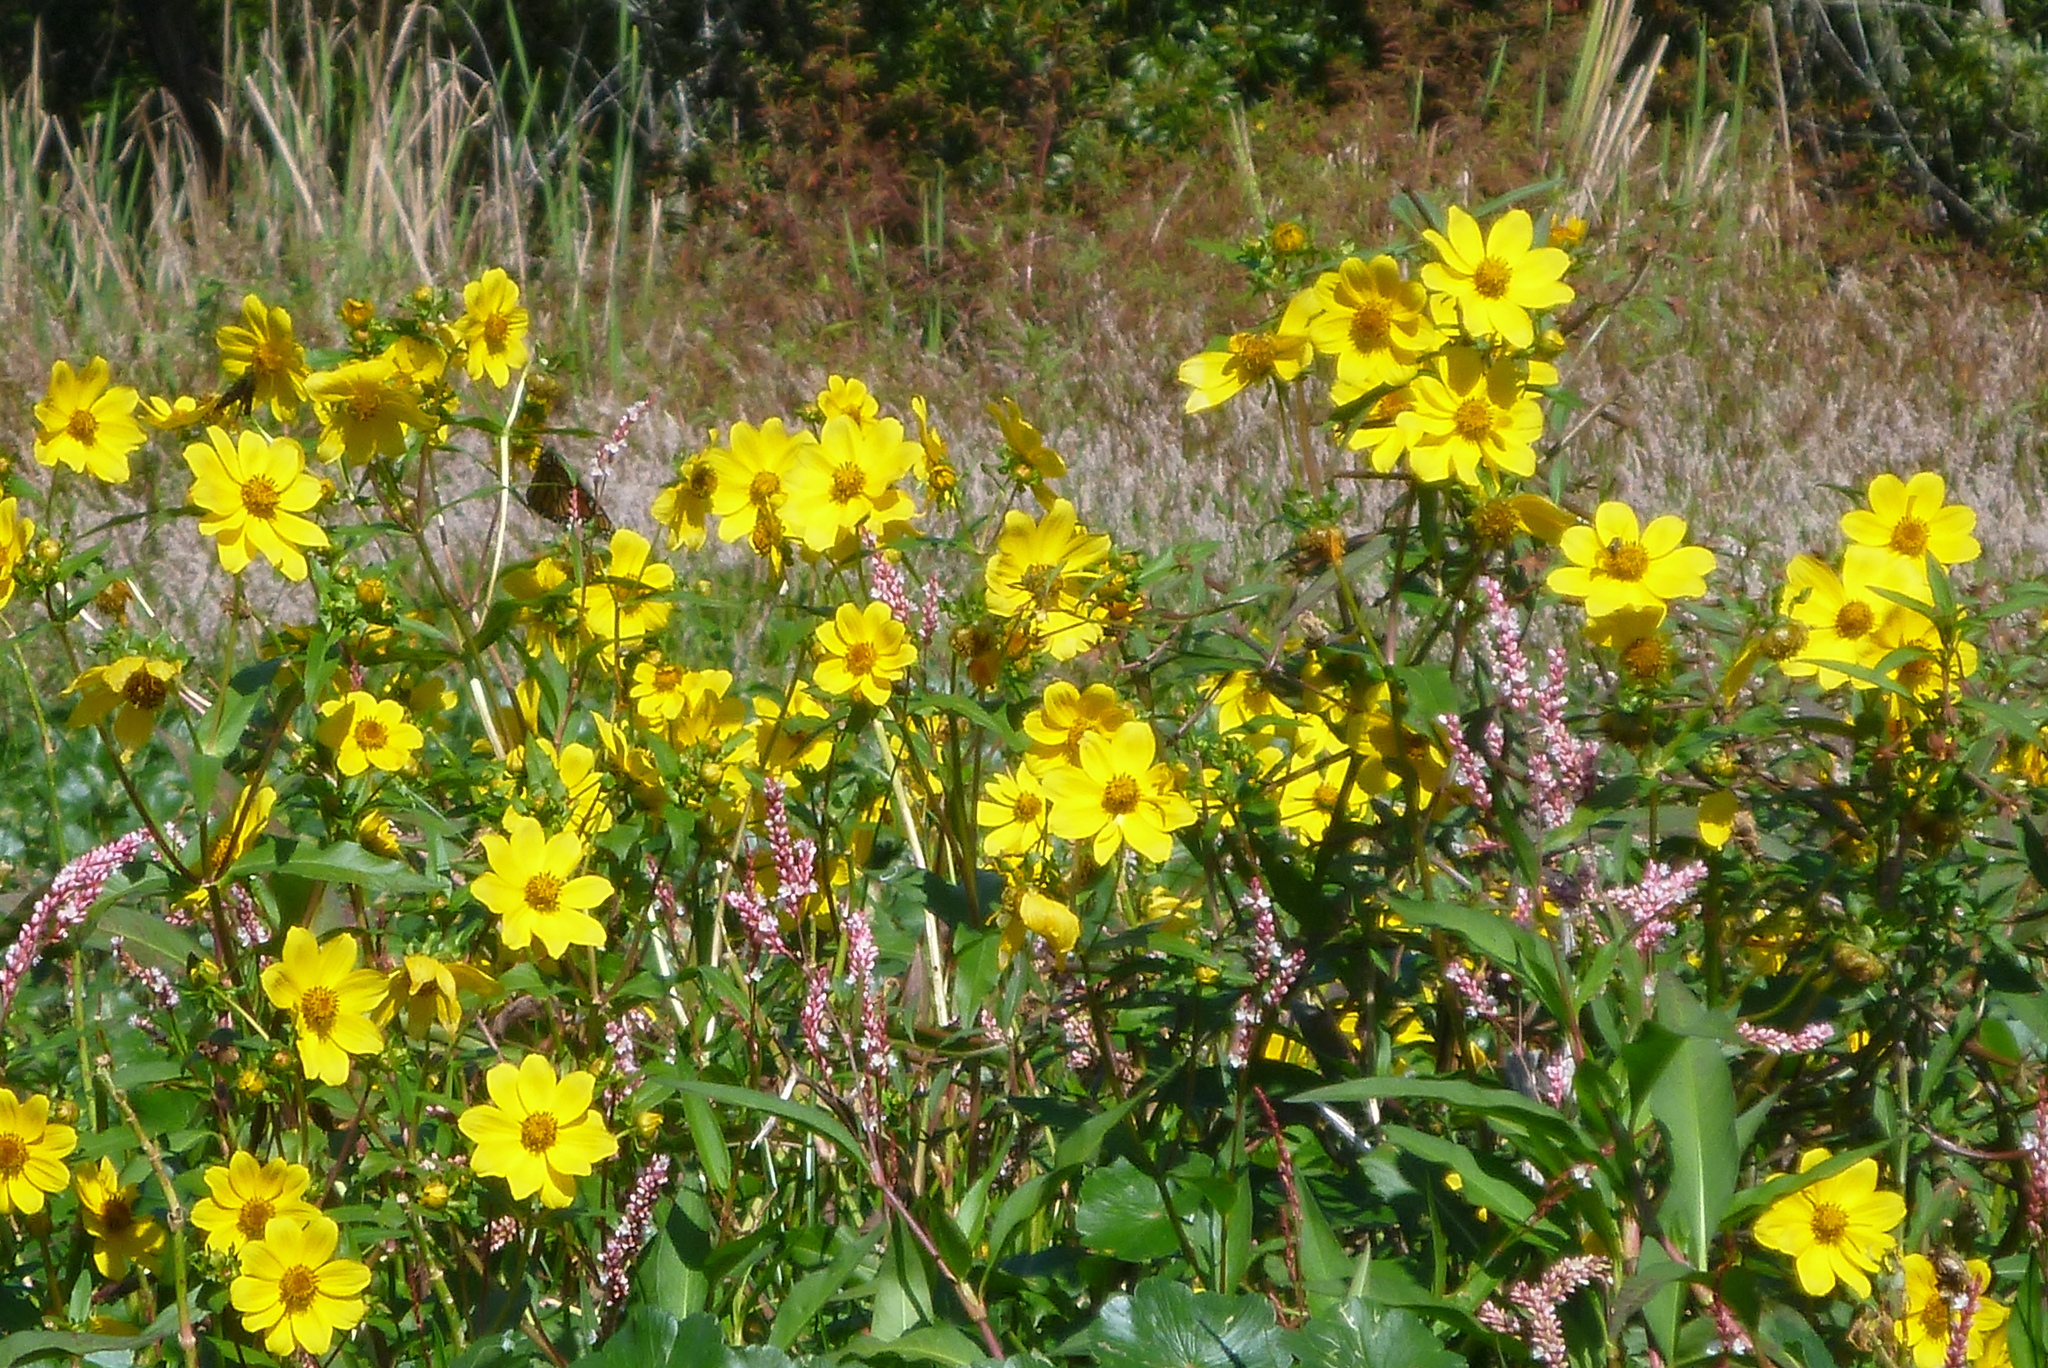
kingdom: Plantae
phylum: Tracheophyta
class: Magnoliopsida
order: Asterales
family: Asteraceae
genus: Bidens
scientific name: Bidens laevis
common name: Larger bur-marigold
